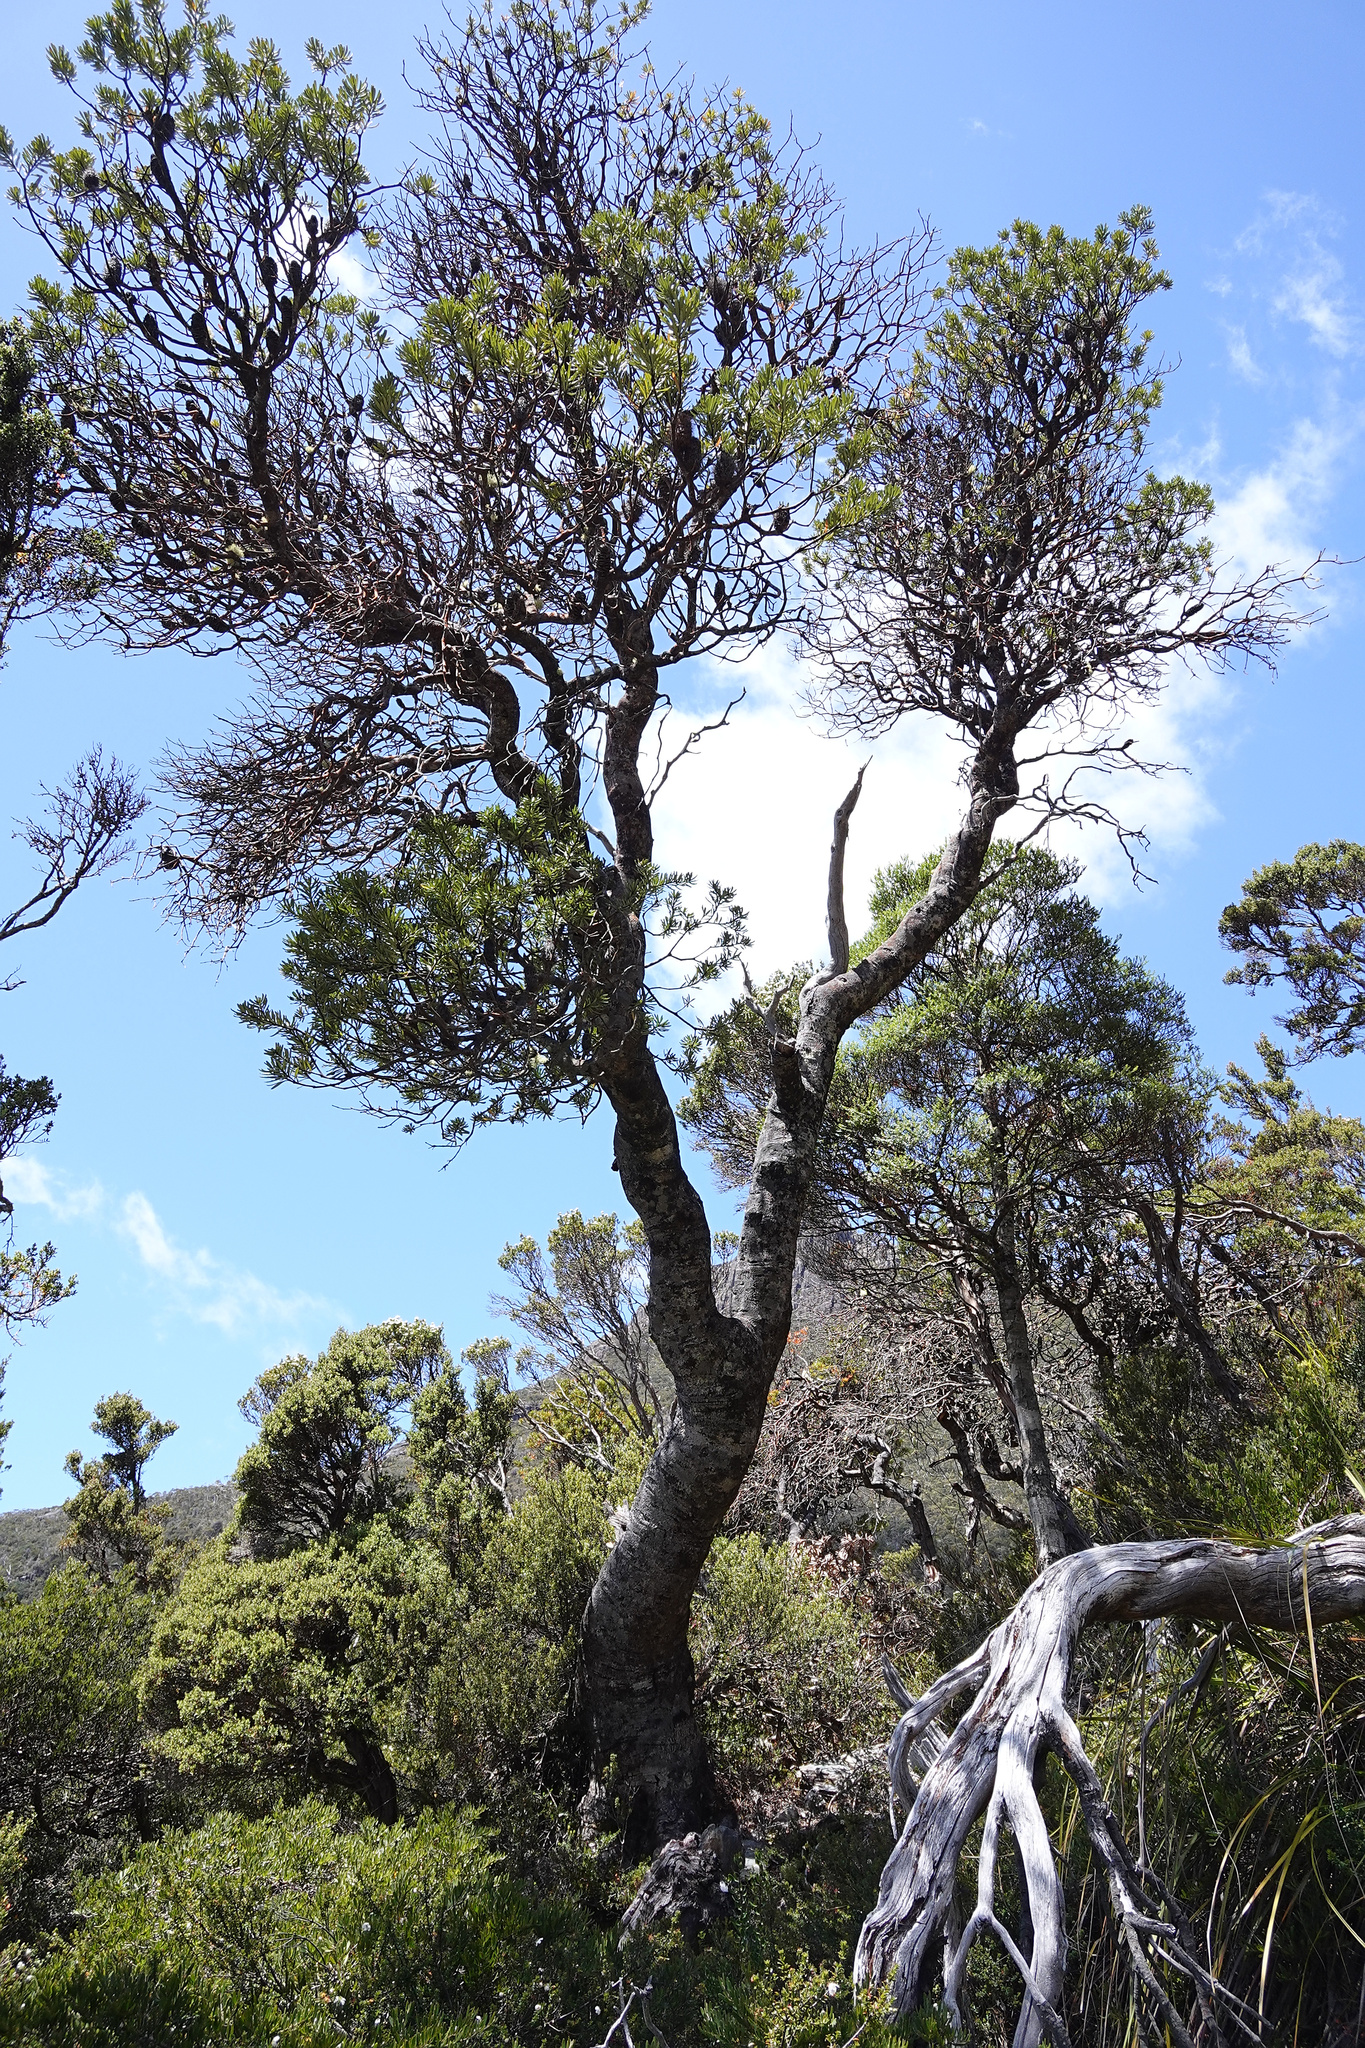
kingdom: Plantae
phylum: Tracheophyta
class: Magnoliopsida
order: Proteales
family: Proteaceae
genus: Banksia
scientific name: Banksia marginata
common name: Silver banksia
